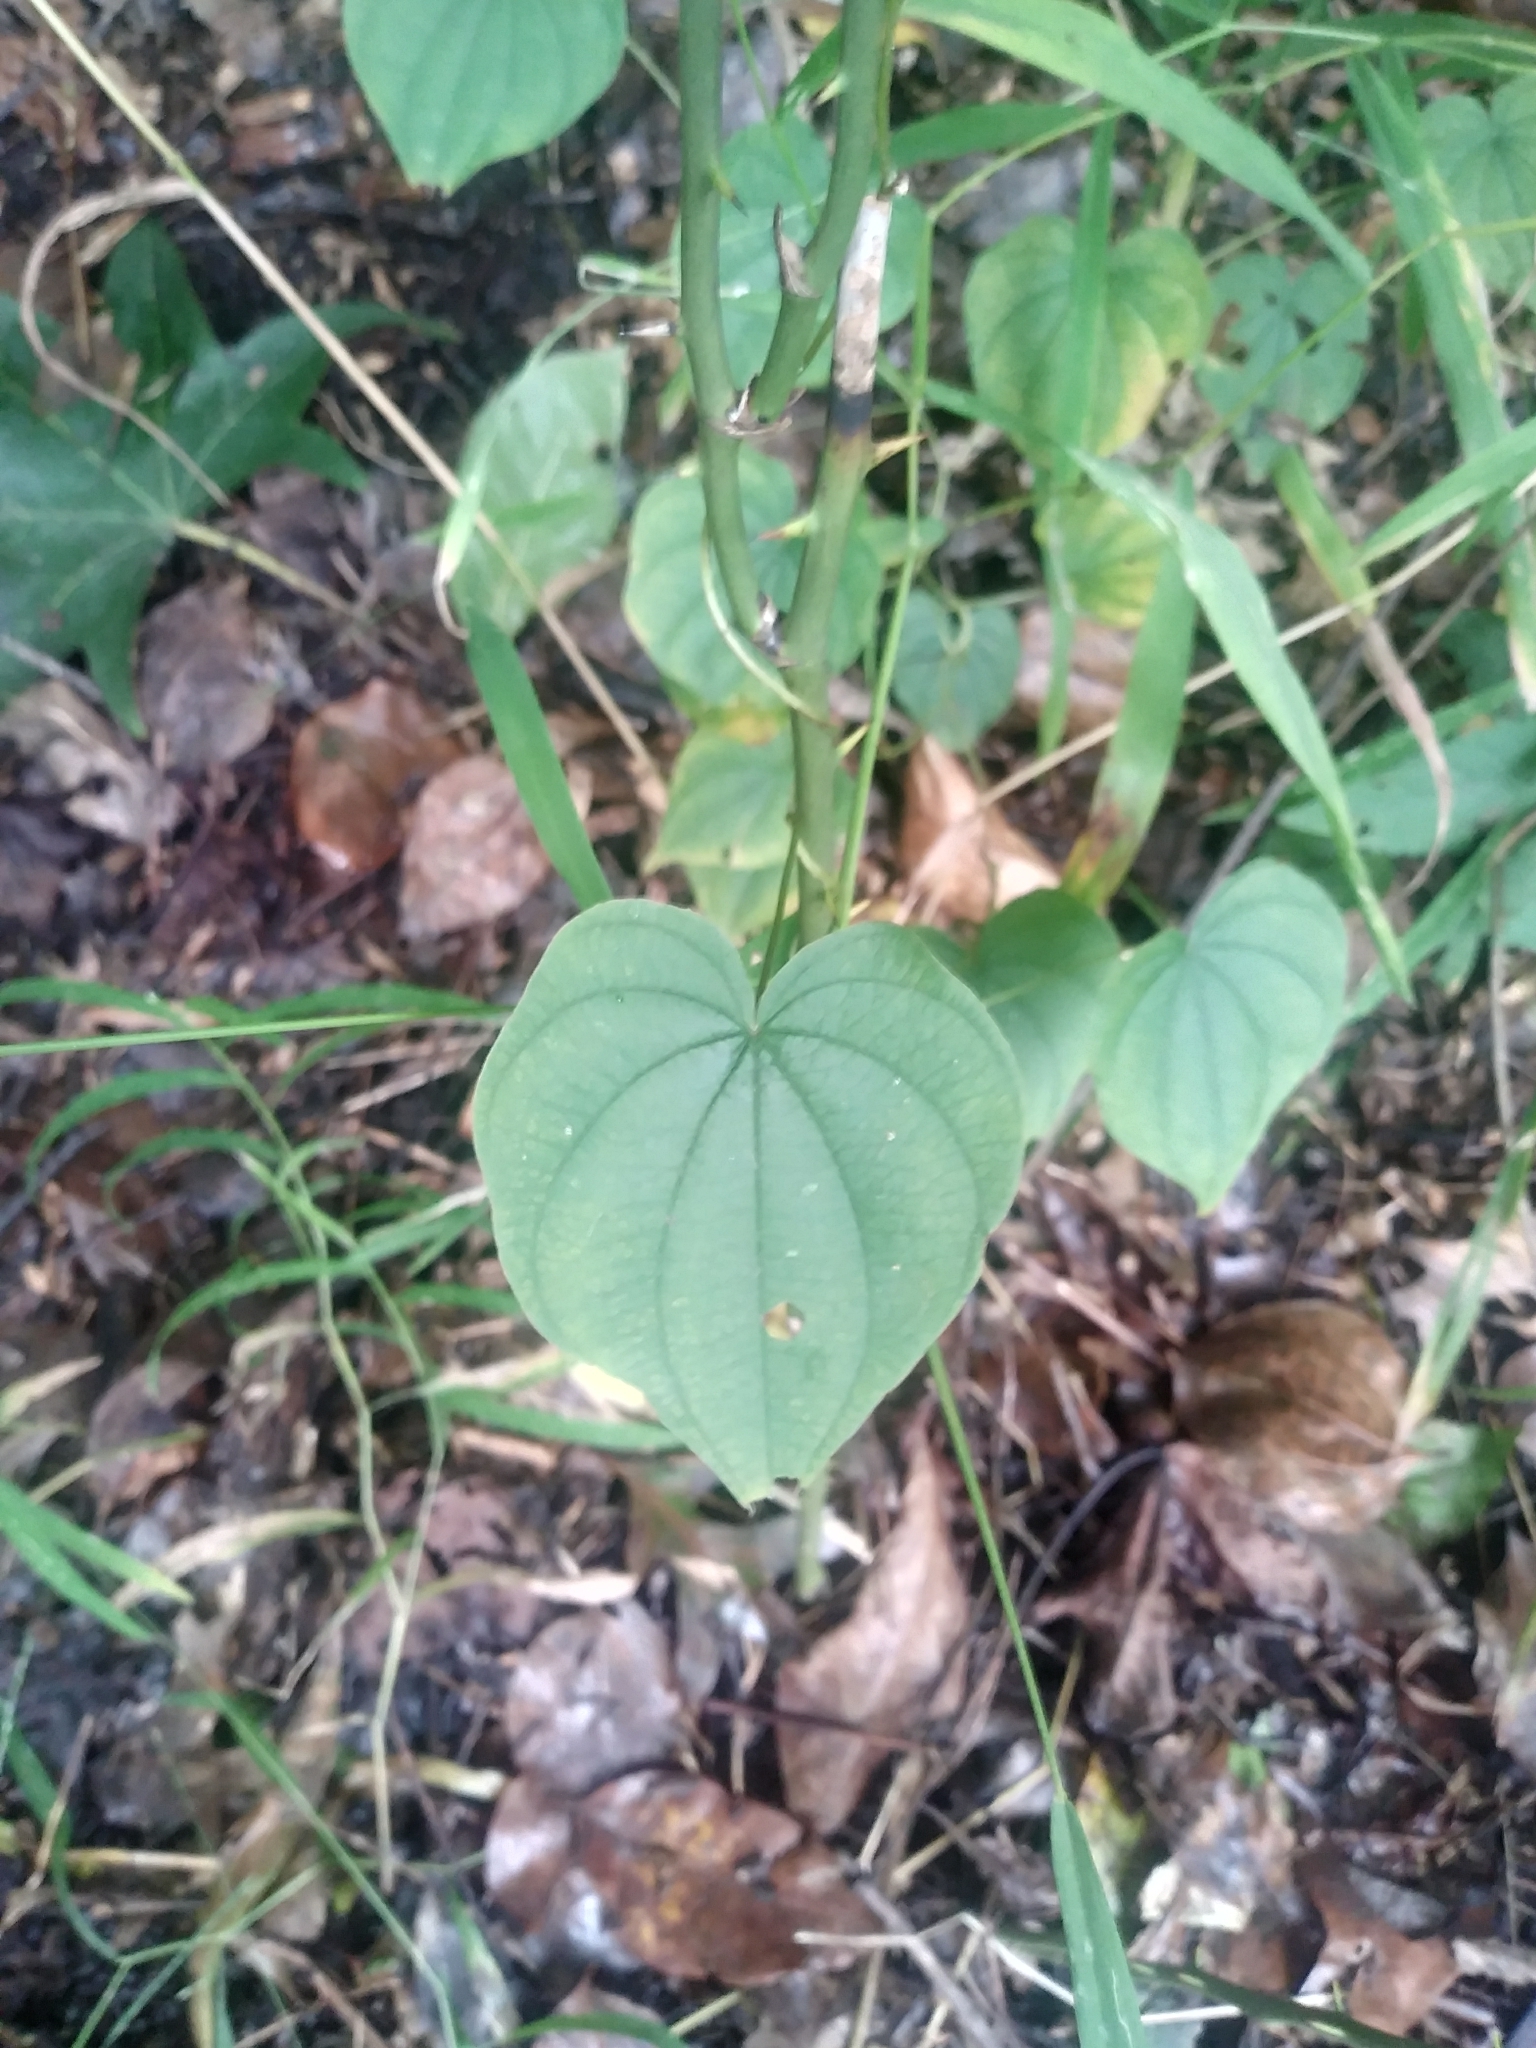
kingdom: Plantae
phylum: Tracheophyta
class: Liliopsida
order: Dioscoreales
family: Dioscoreaceae
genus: Dioscorea
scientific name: Dioscorea villosa
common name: Wild yam
